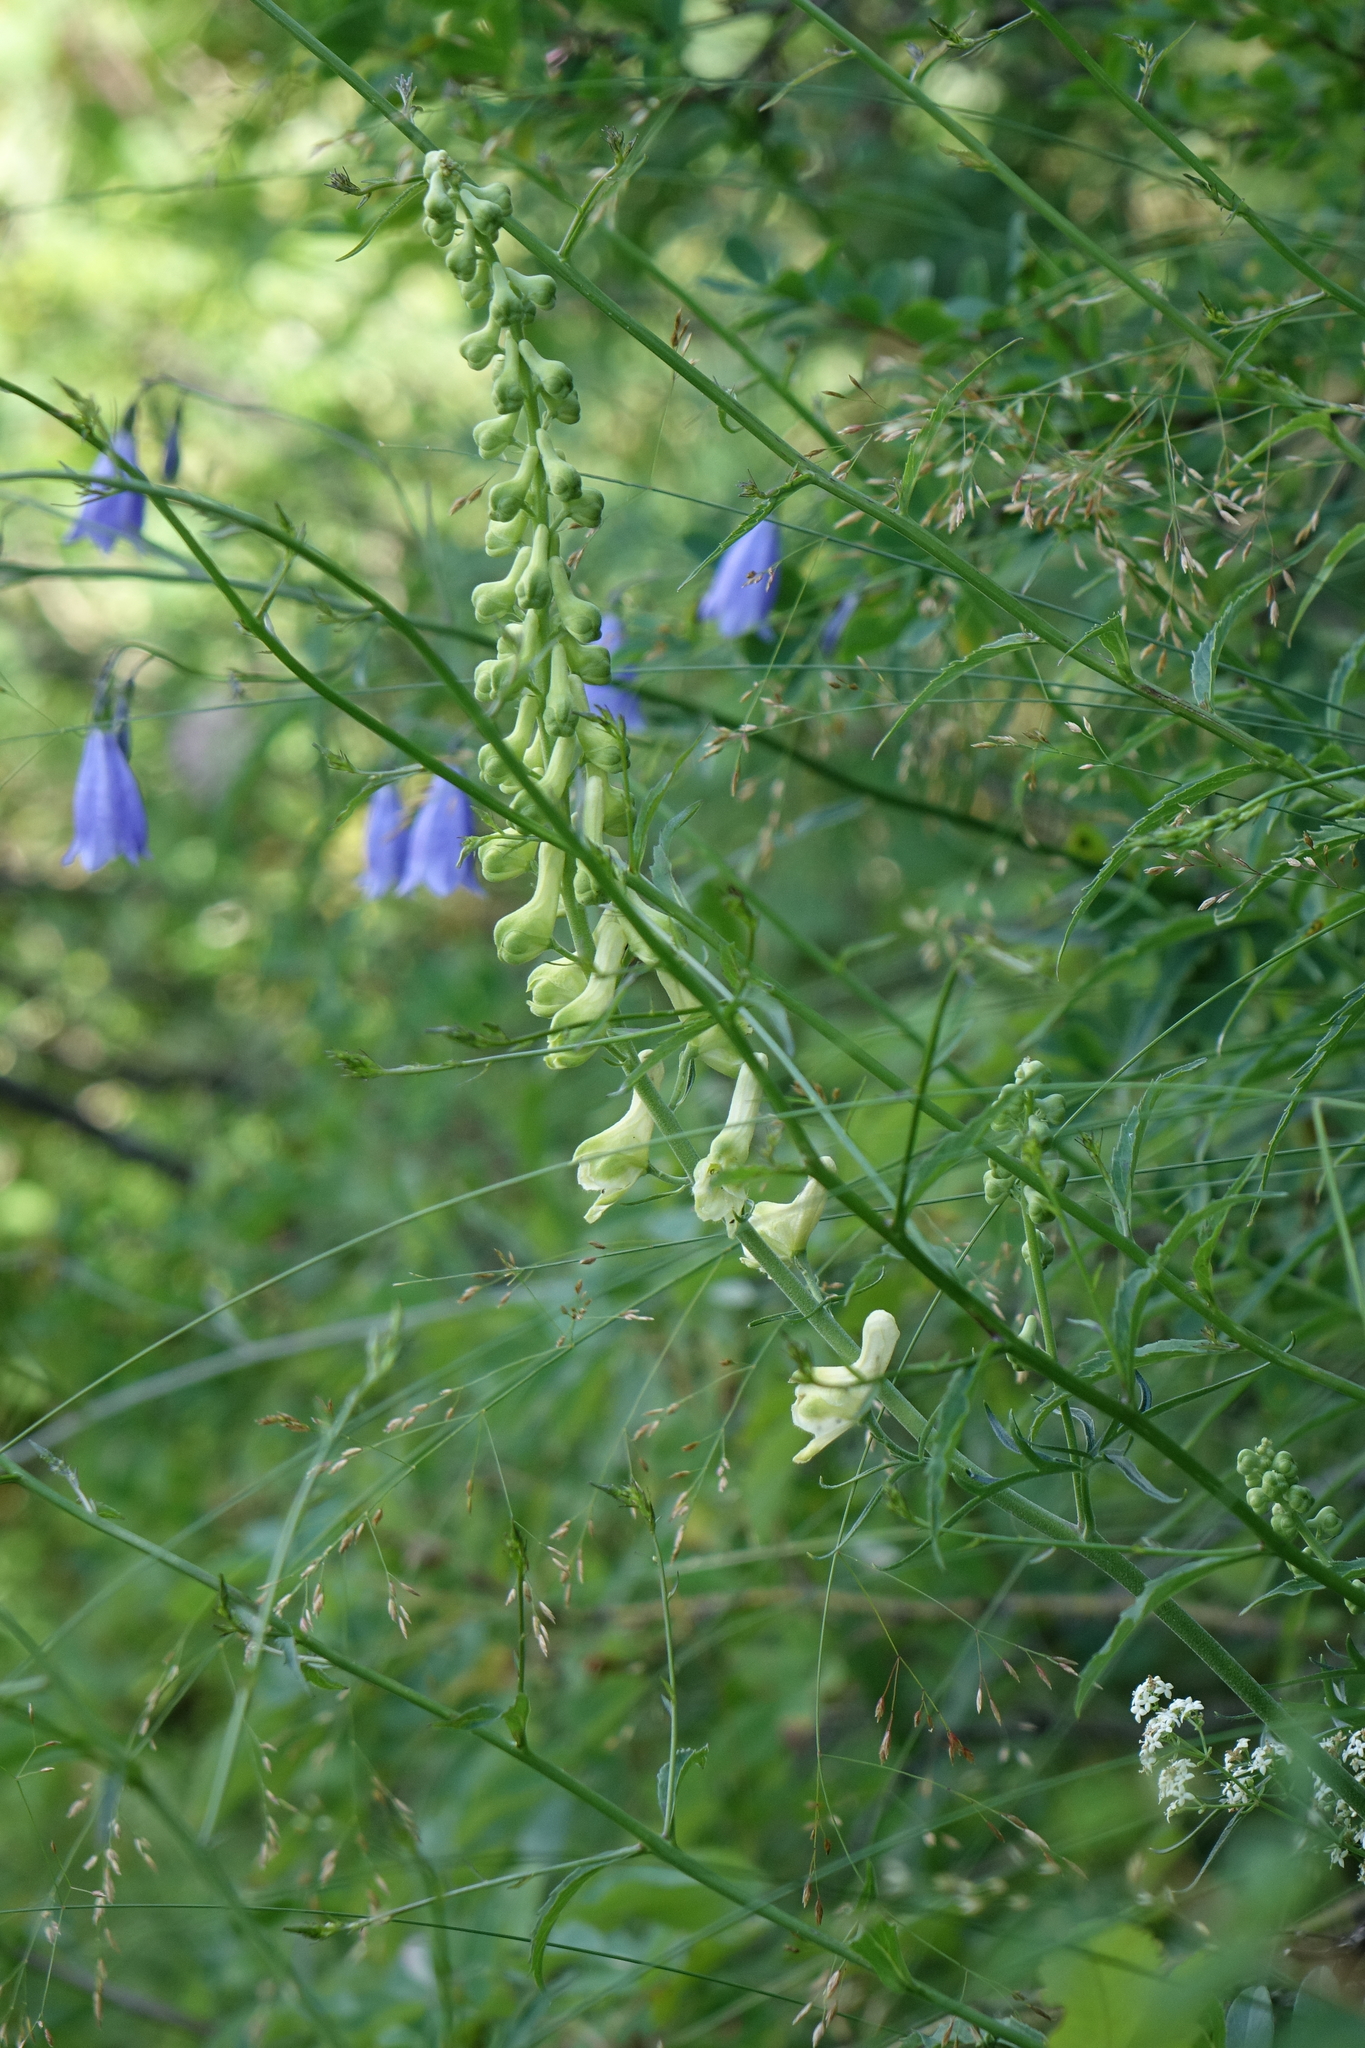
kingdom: Plantae
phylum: Tracheophyta
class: Magnoliopsida
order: Ranunculales
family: Ranunculaceae
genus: Aconitum
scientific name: Aconitum barbatum
